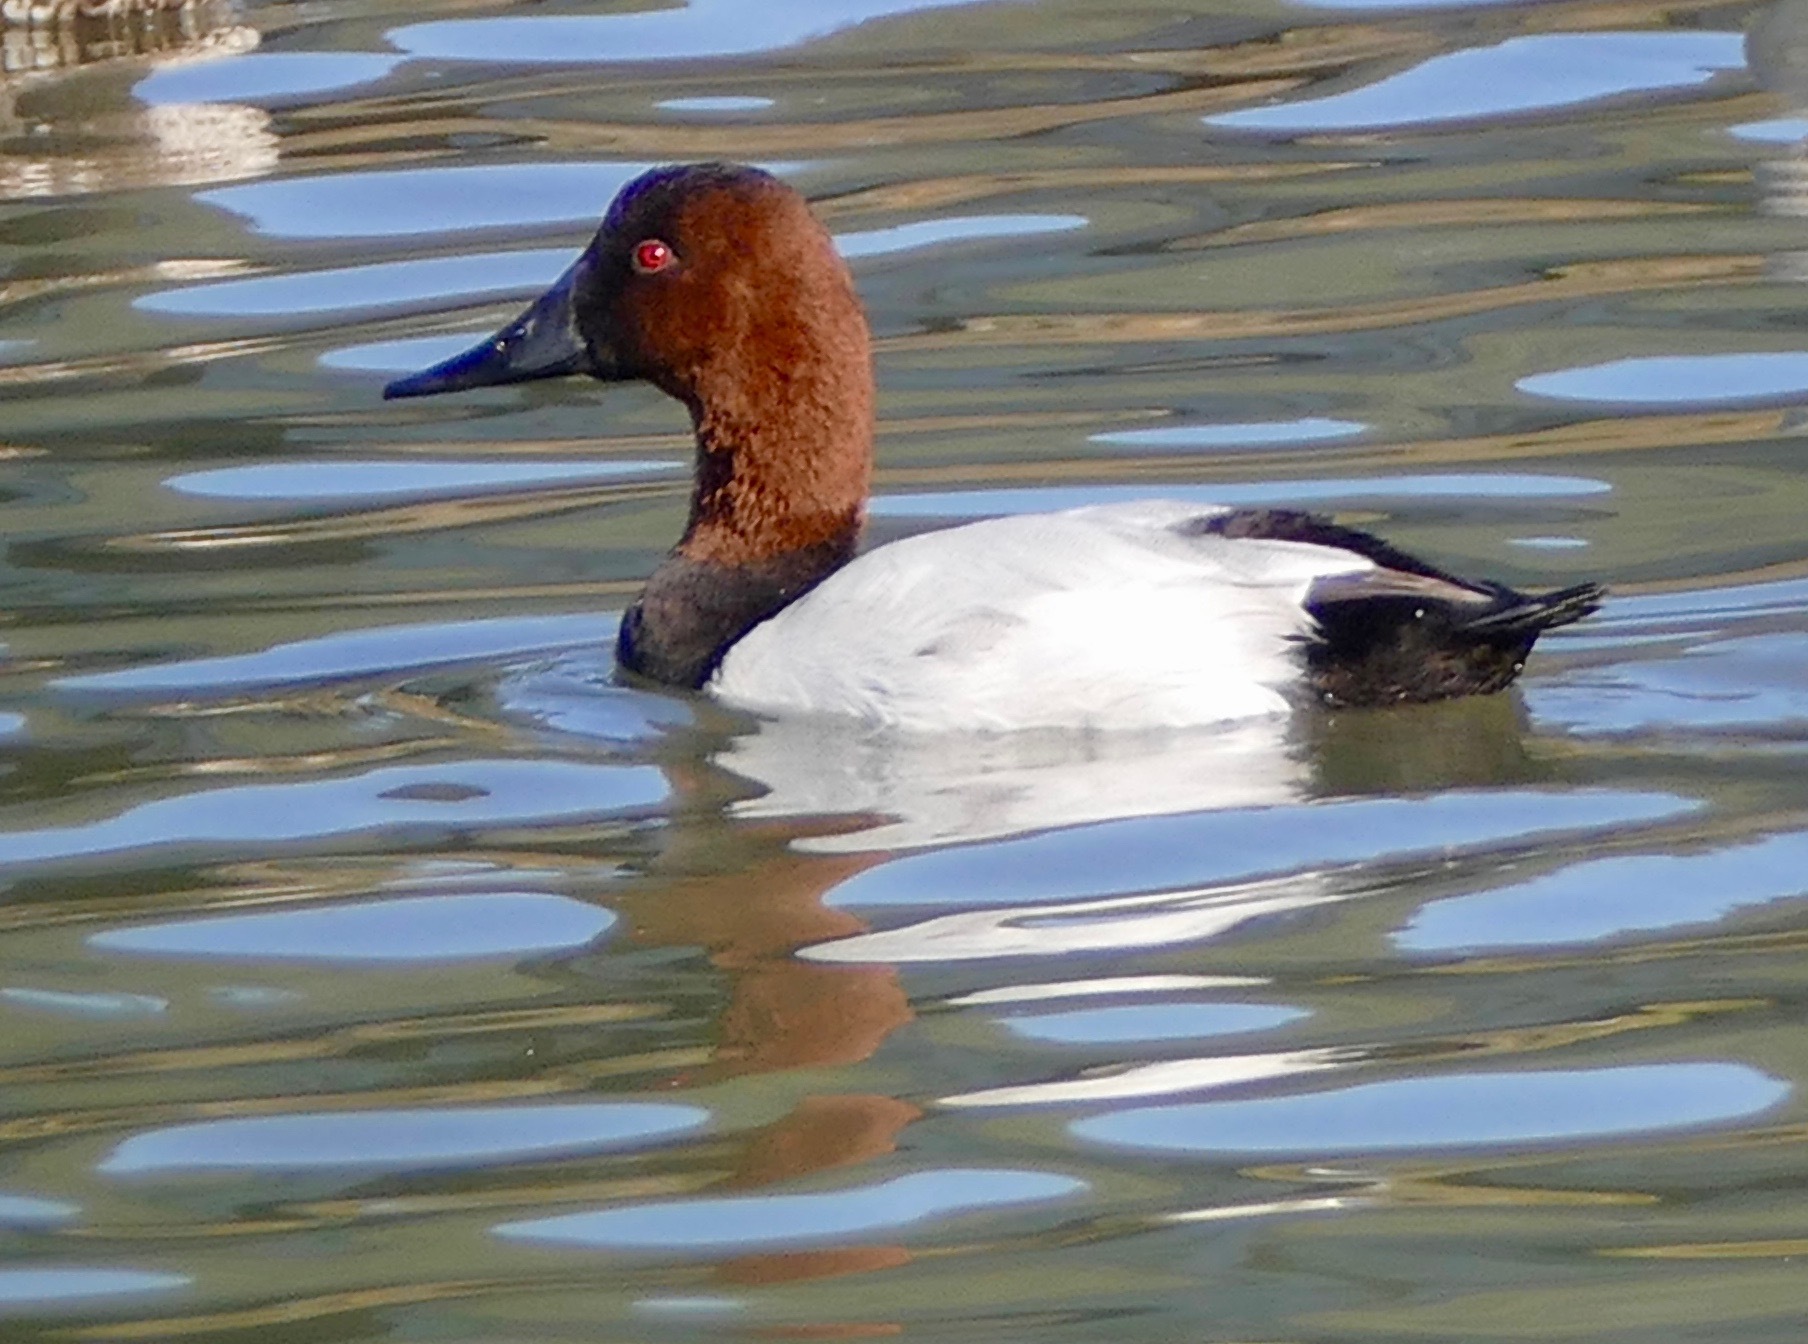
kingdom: Animalia
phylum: Chordata
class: Aves
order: Anseriformes
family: Anatidae
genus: Aythya
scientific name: Aythya valisineria
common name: Canvasback
